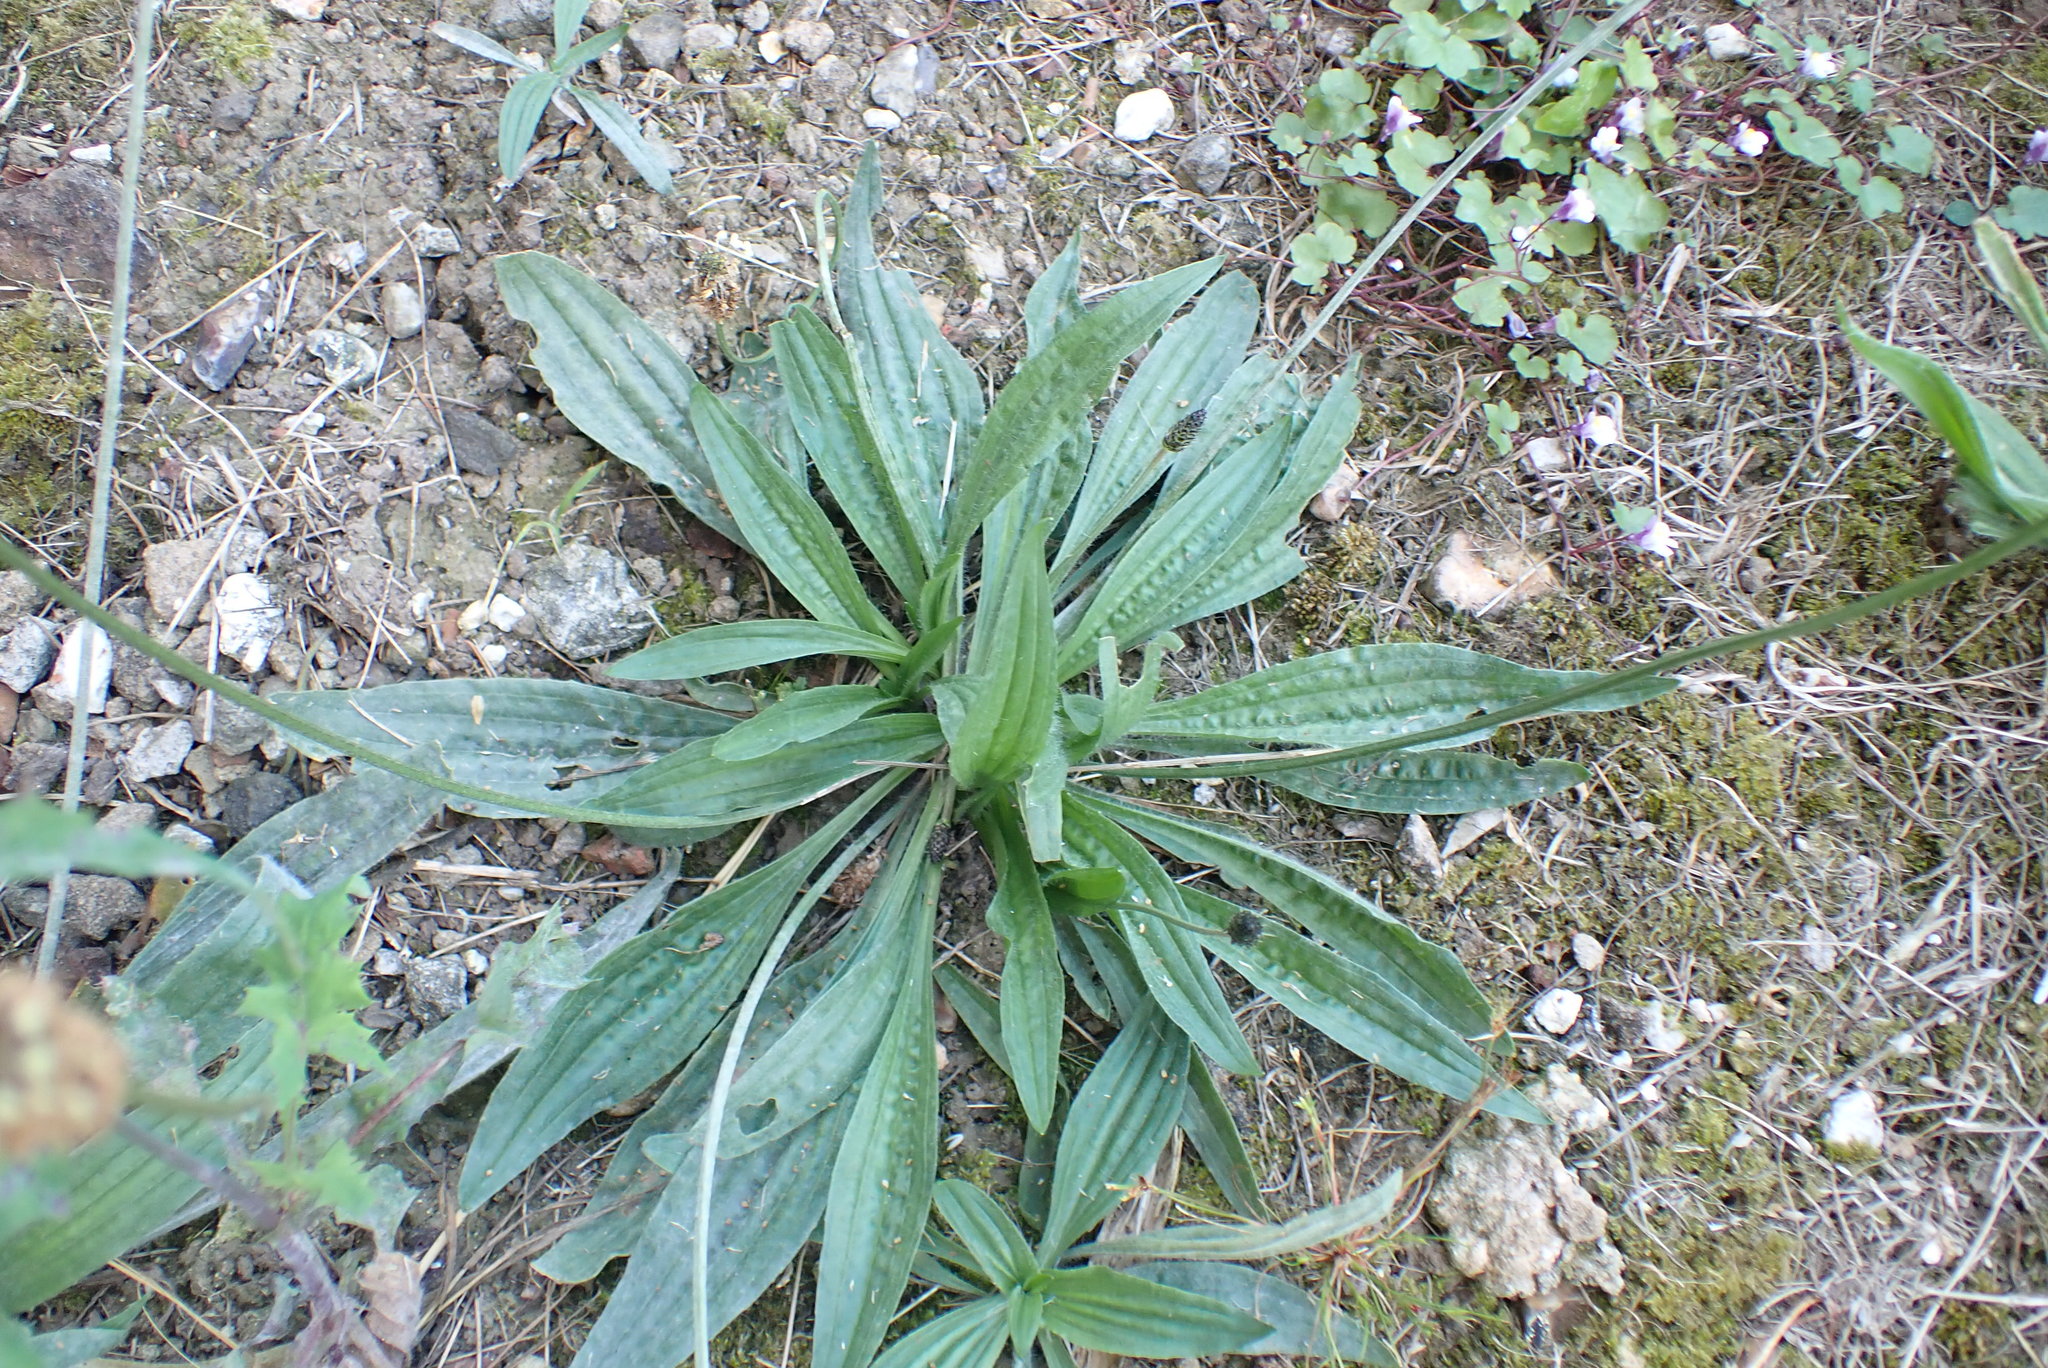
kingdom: Plantae
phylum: Tracheophyta
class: Magnoliopsida
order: Lamiales
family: Plantaginaceae
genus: Plantago
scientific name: Plantago lanceolata
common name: Ribwort plantain
